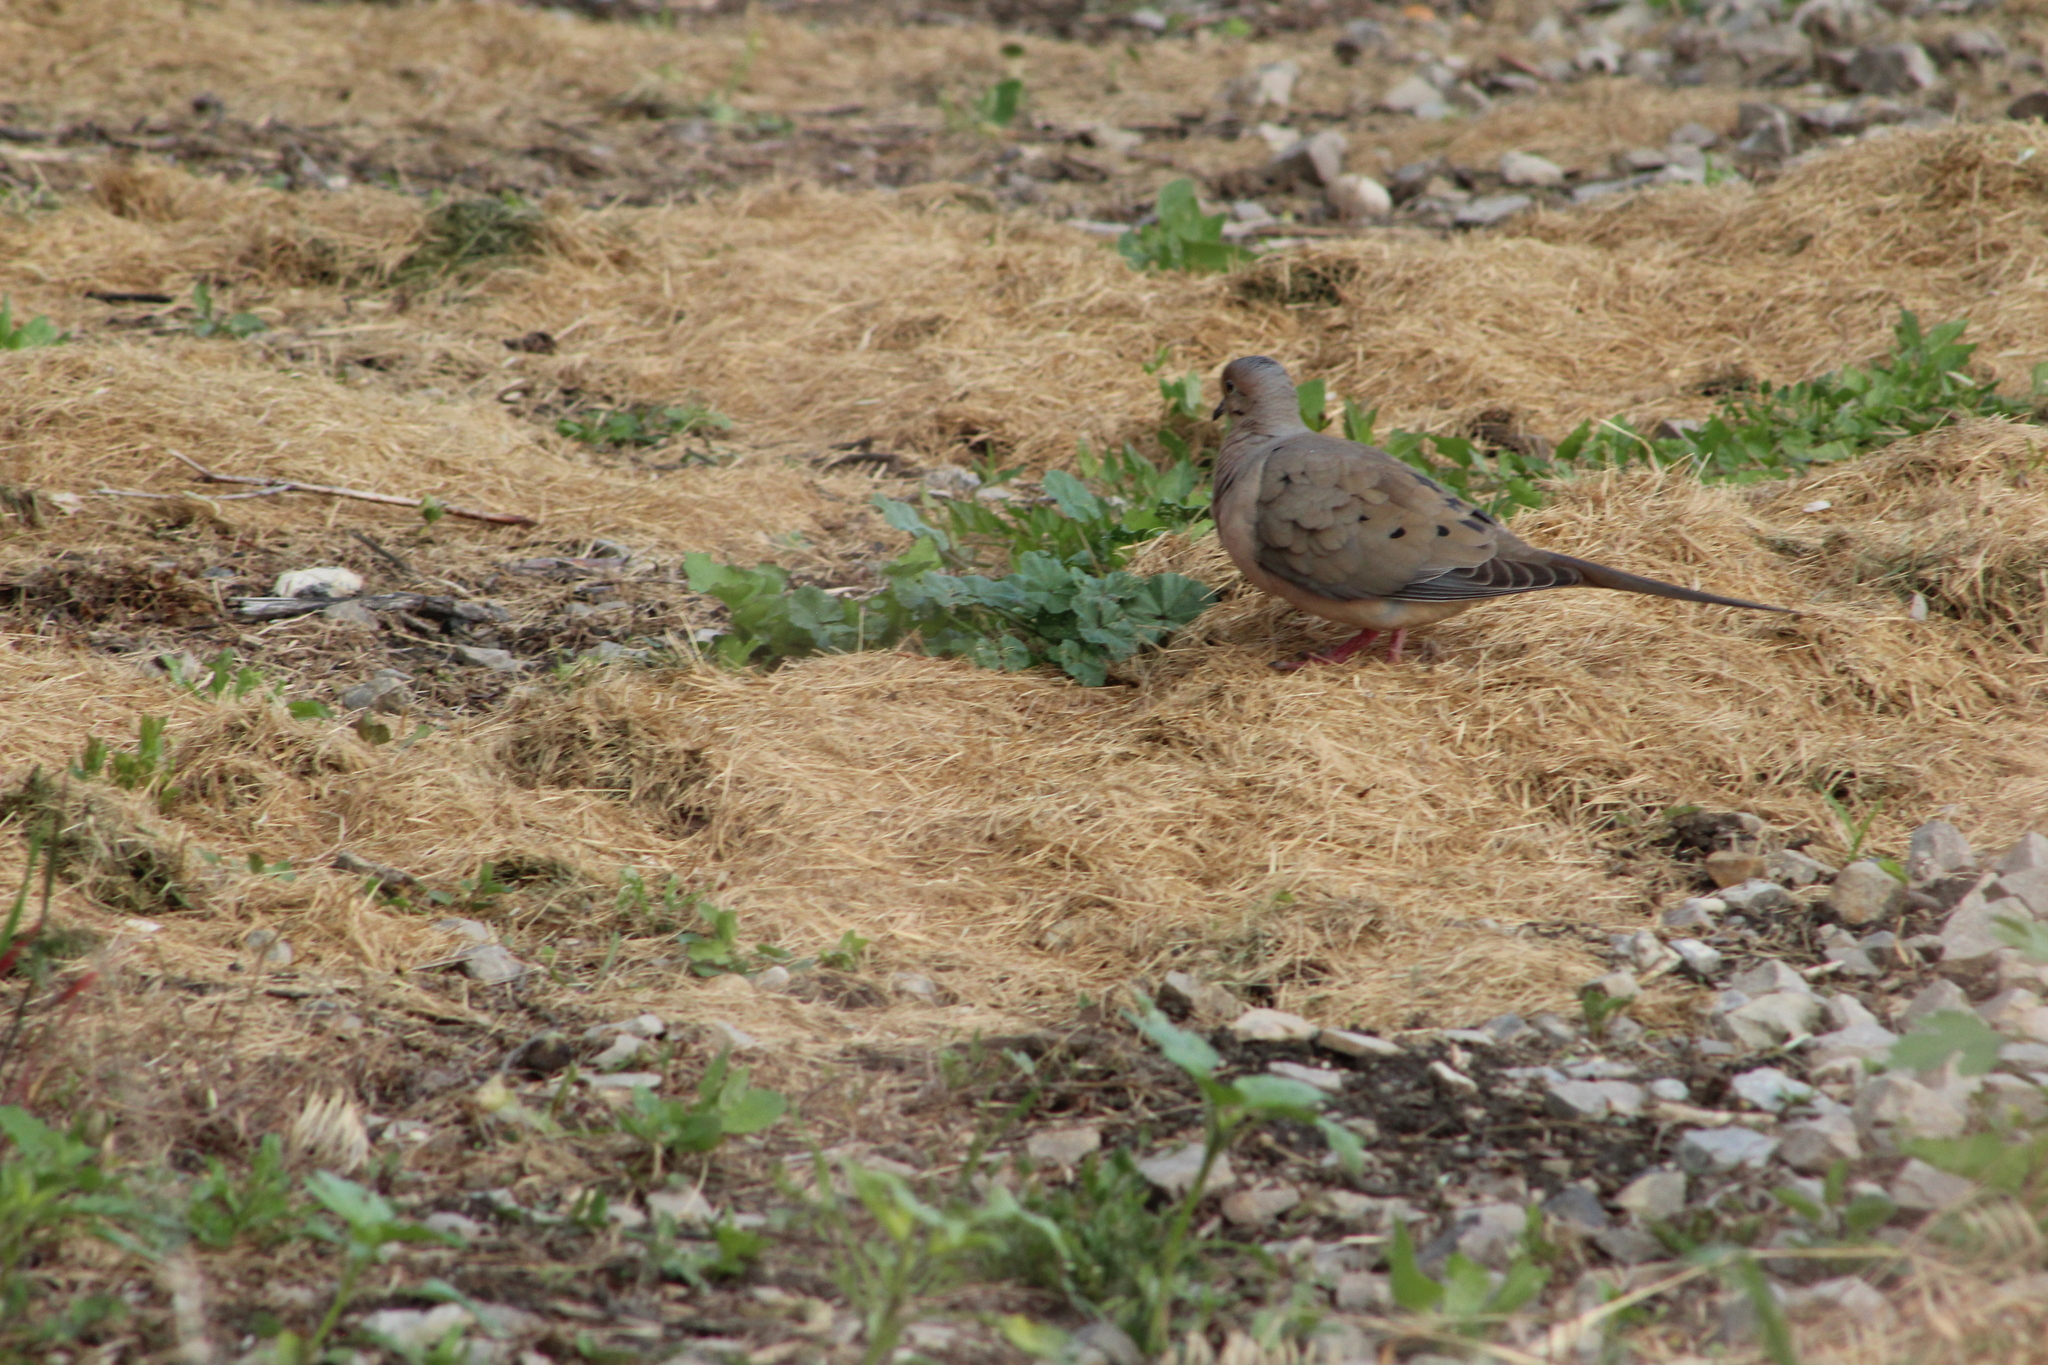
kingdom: Animalia
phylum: Chordata
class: Aves
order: Columbiformes
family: Columbidae
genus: Zenaida
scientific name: Zenaida macroura
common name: Mourning dove
